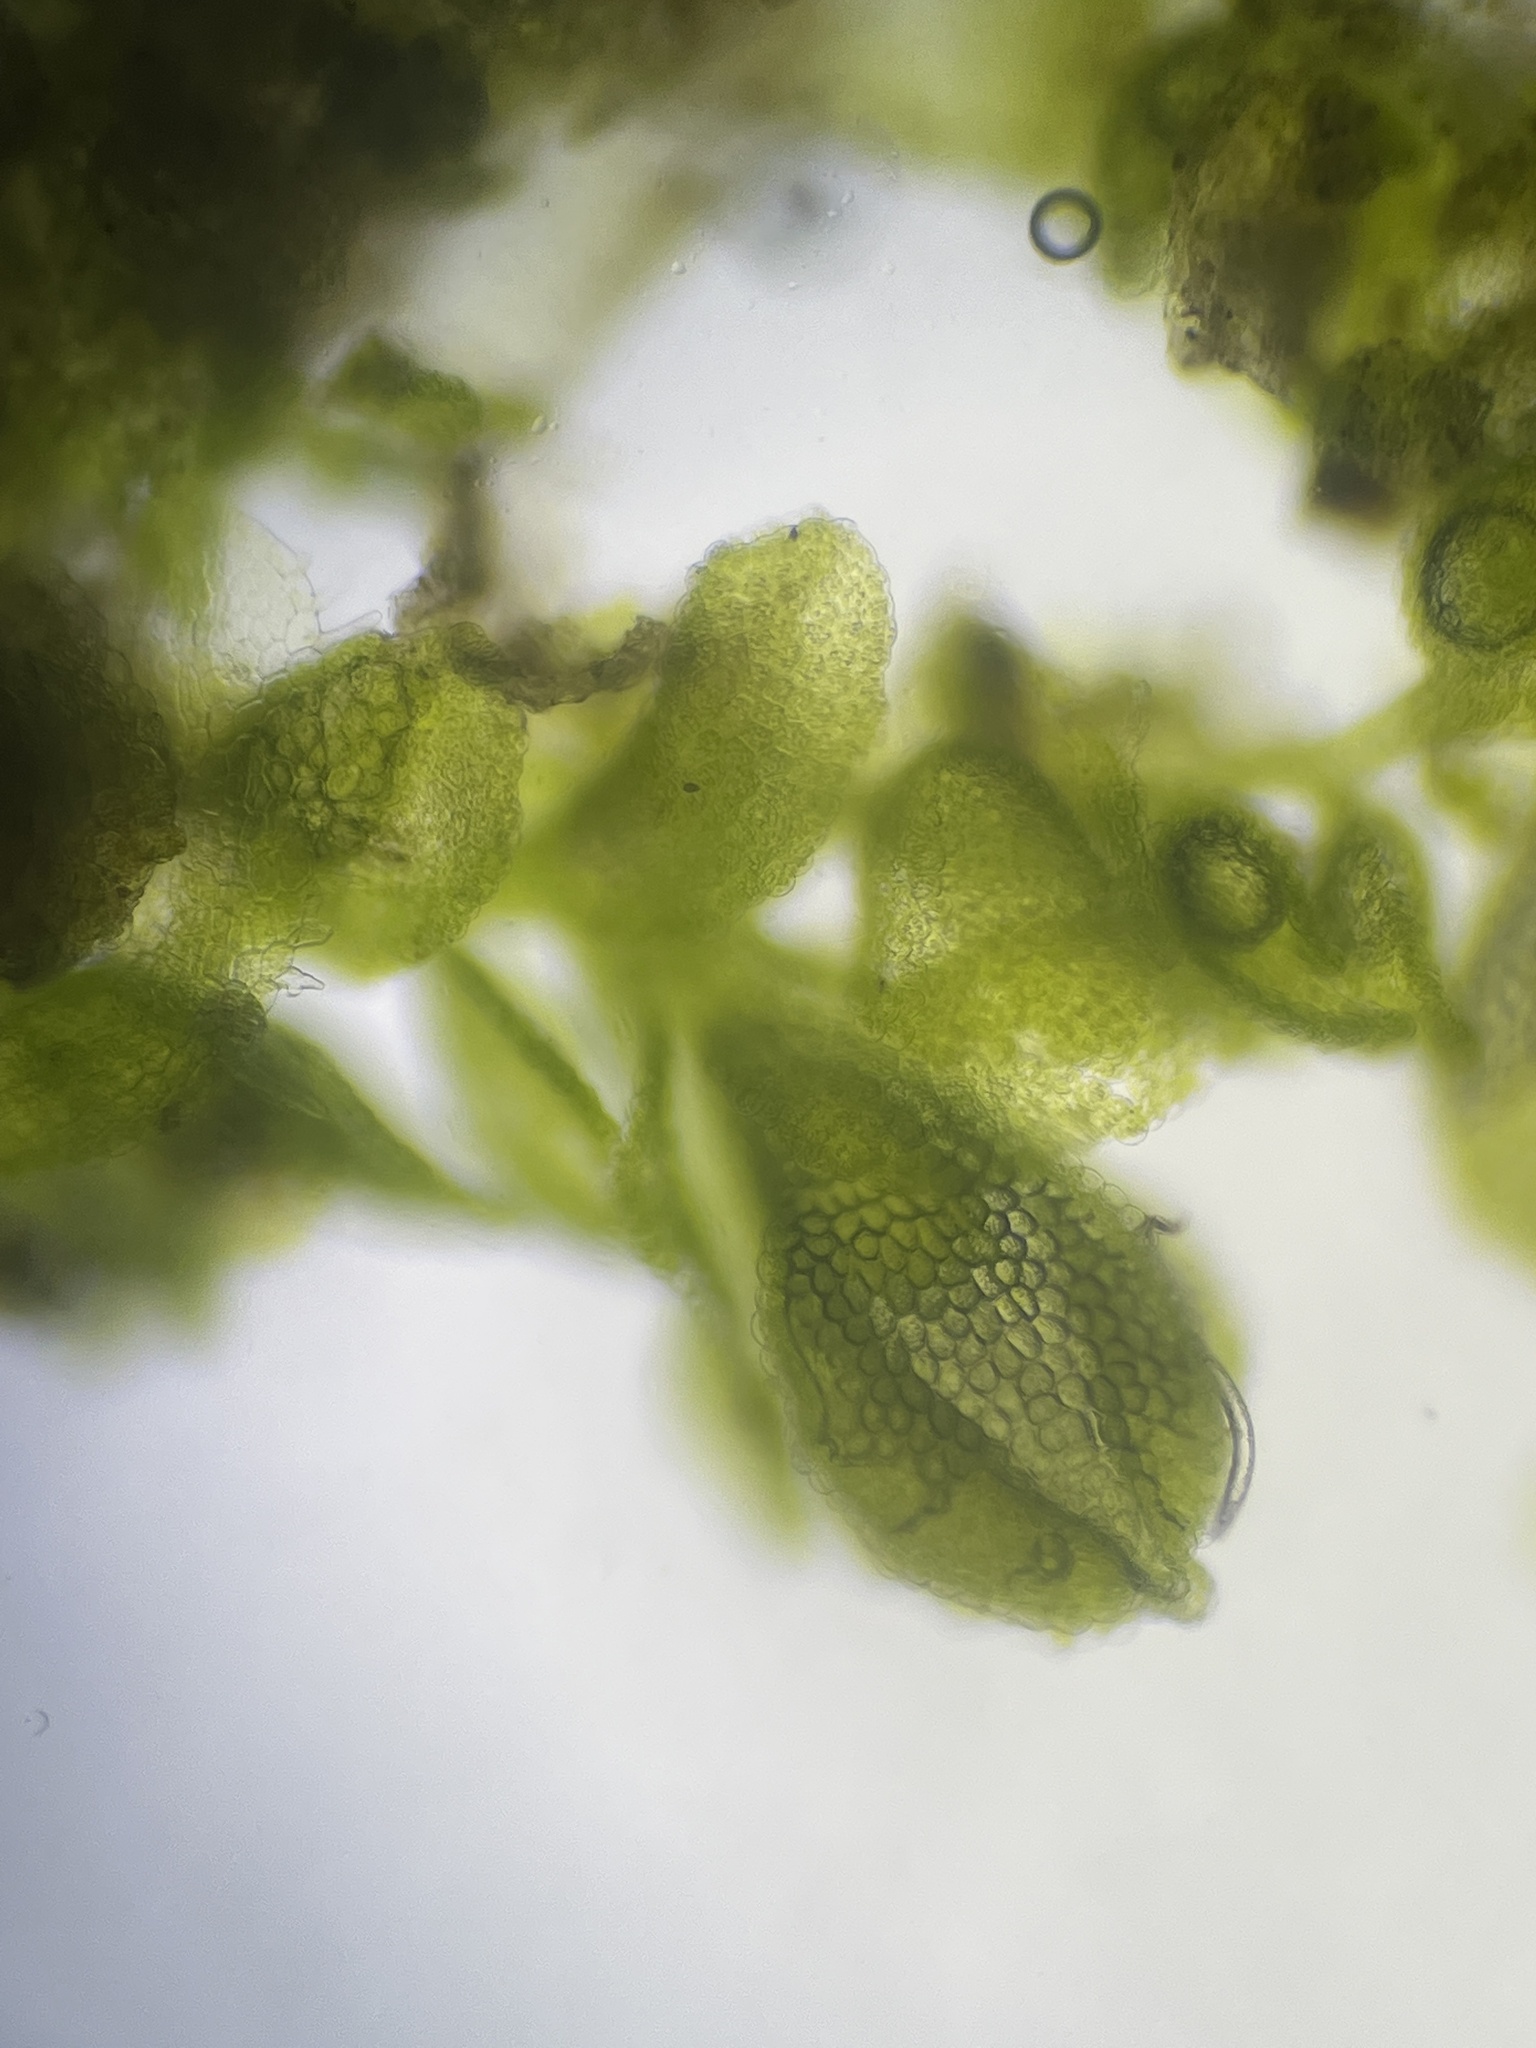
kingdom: Plantae
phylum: Marchantiophyta
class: Jungermanniopsida
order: Porellales
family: Lejeuneaceae
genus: Myriocoleopsis
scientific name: Myriocoleopsis minutissima
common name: Minute pouncewort
